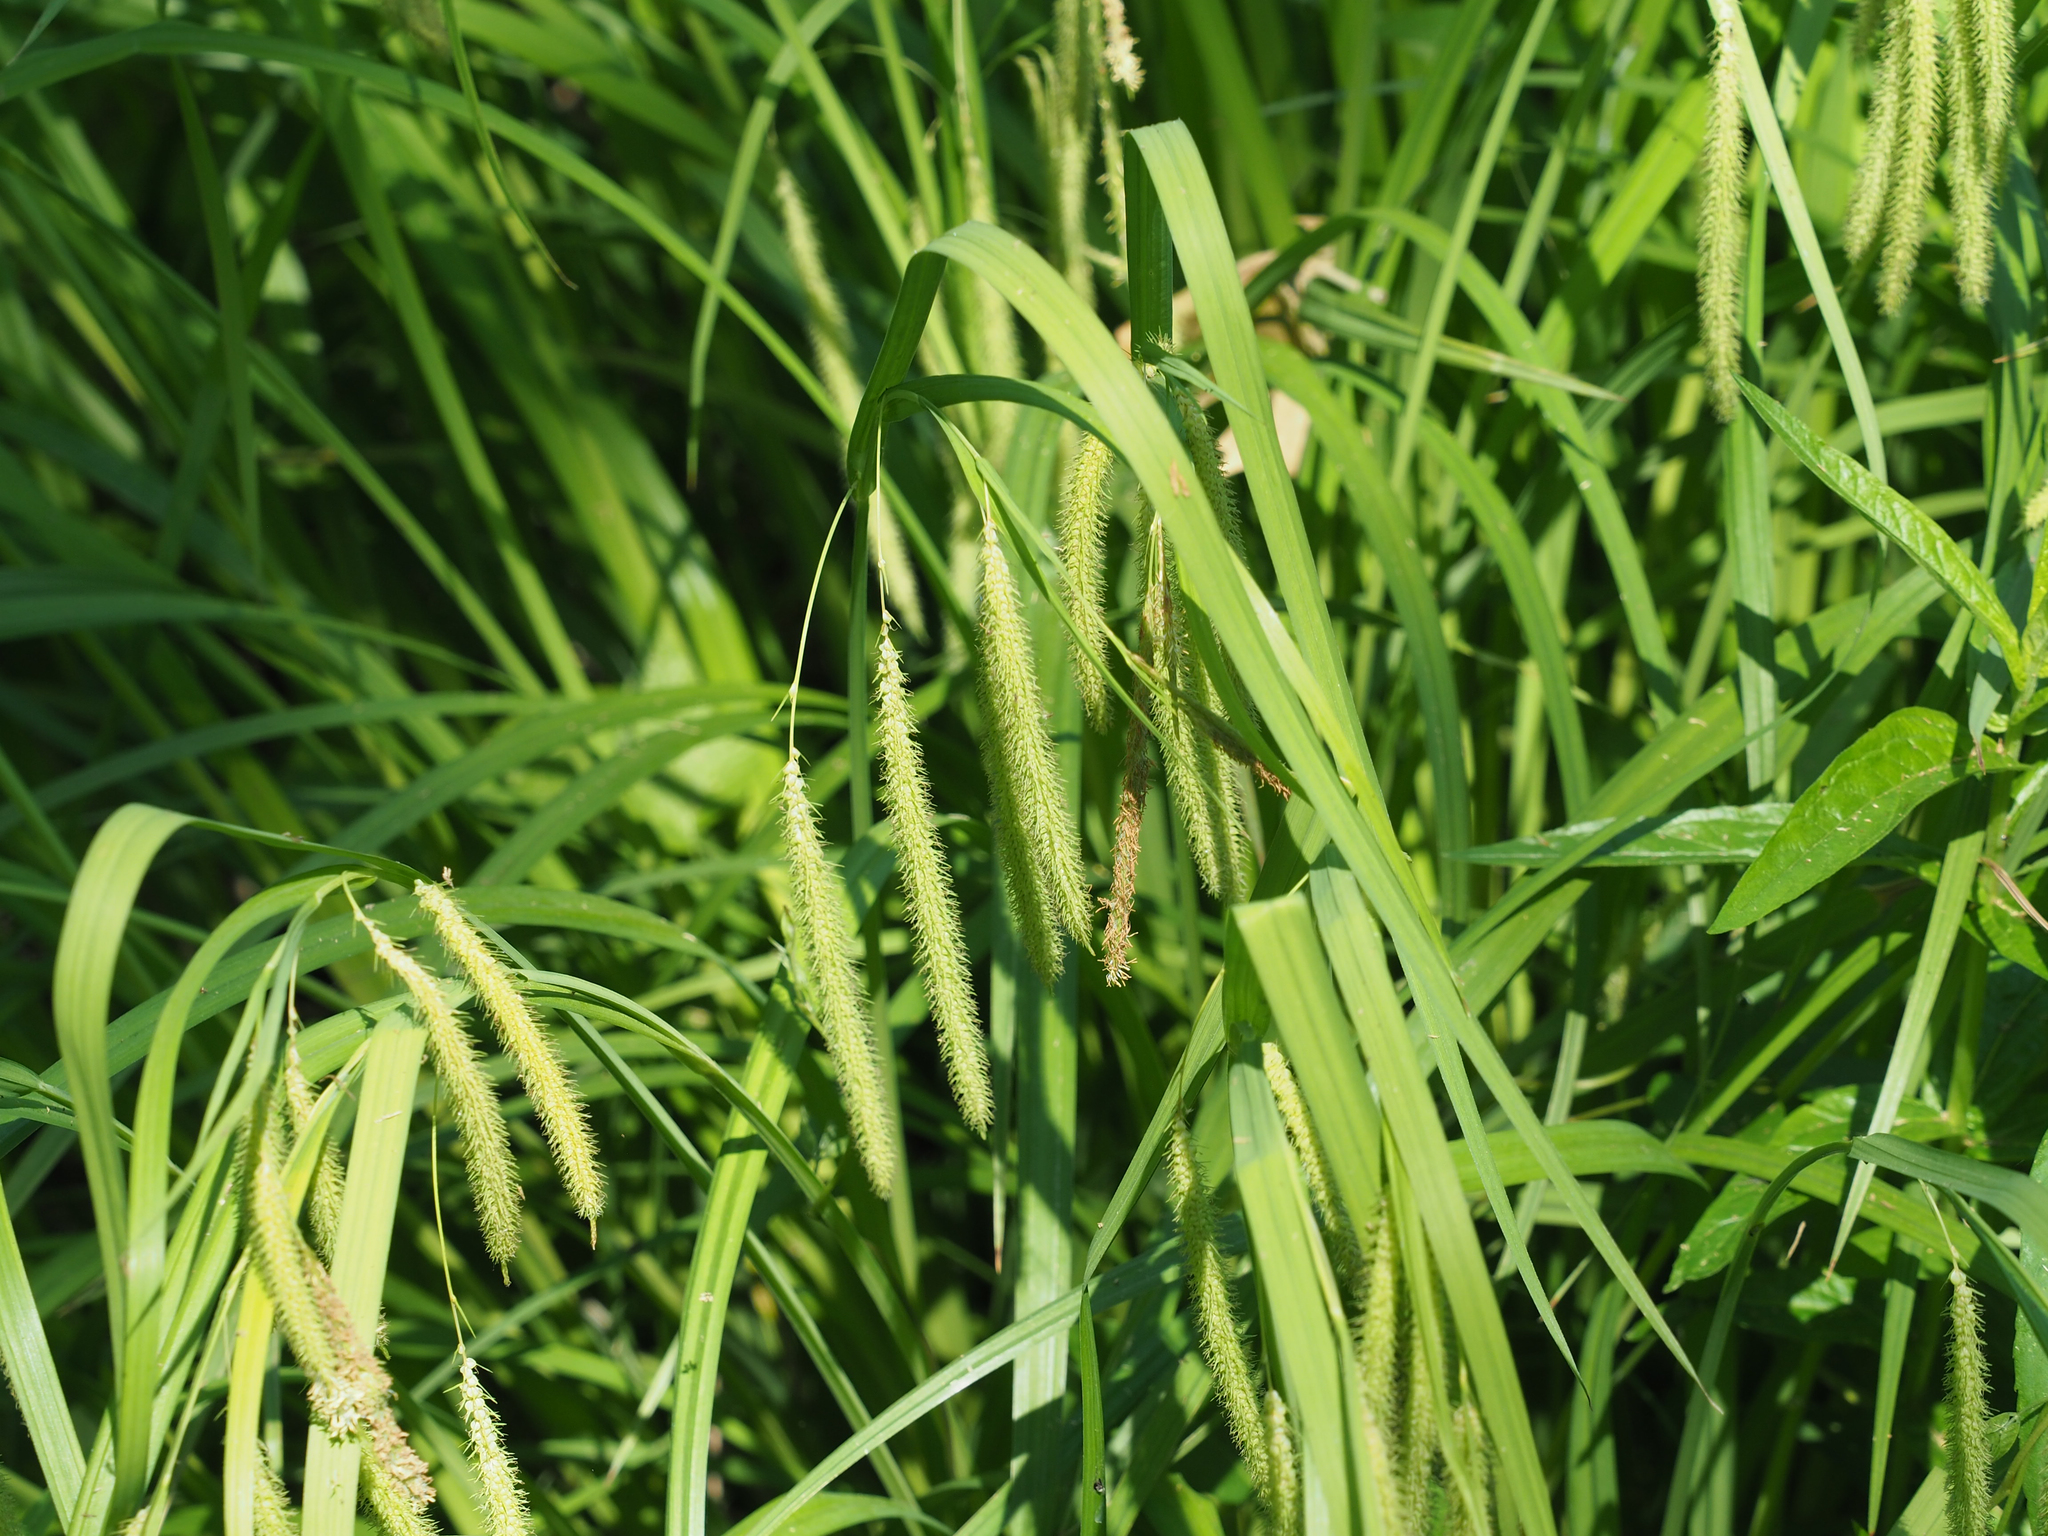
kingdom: Plantae
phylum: Tracheophyta
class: Liliopsida
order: Poales
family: Cyperaceae
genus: Carex
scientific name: Carex crinita
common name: Fringed sedge
